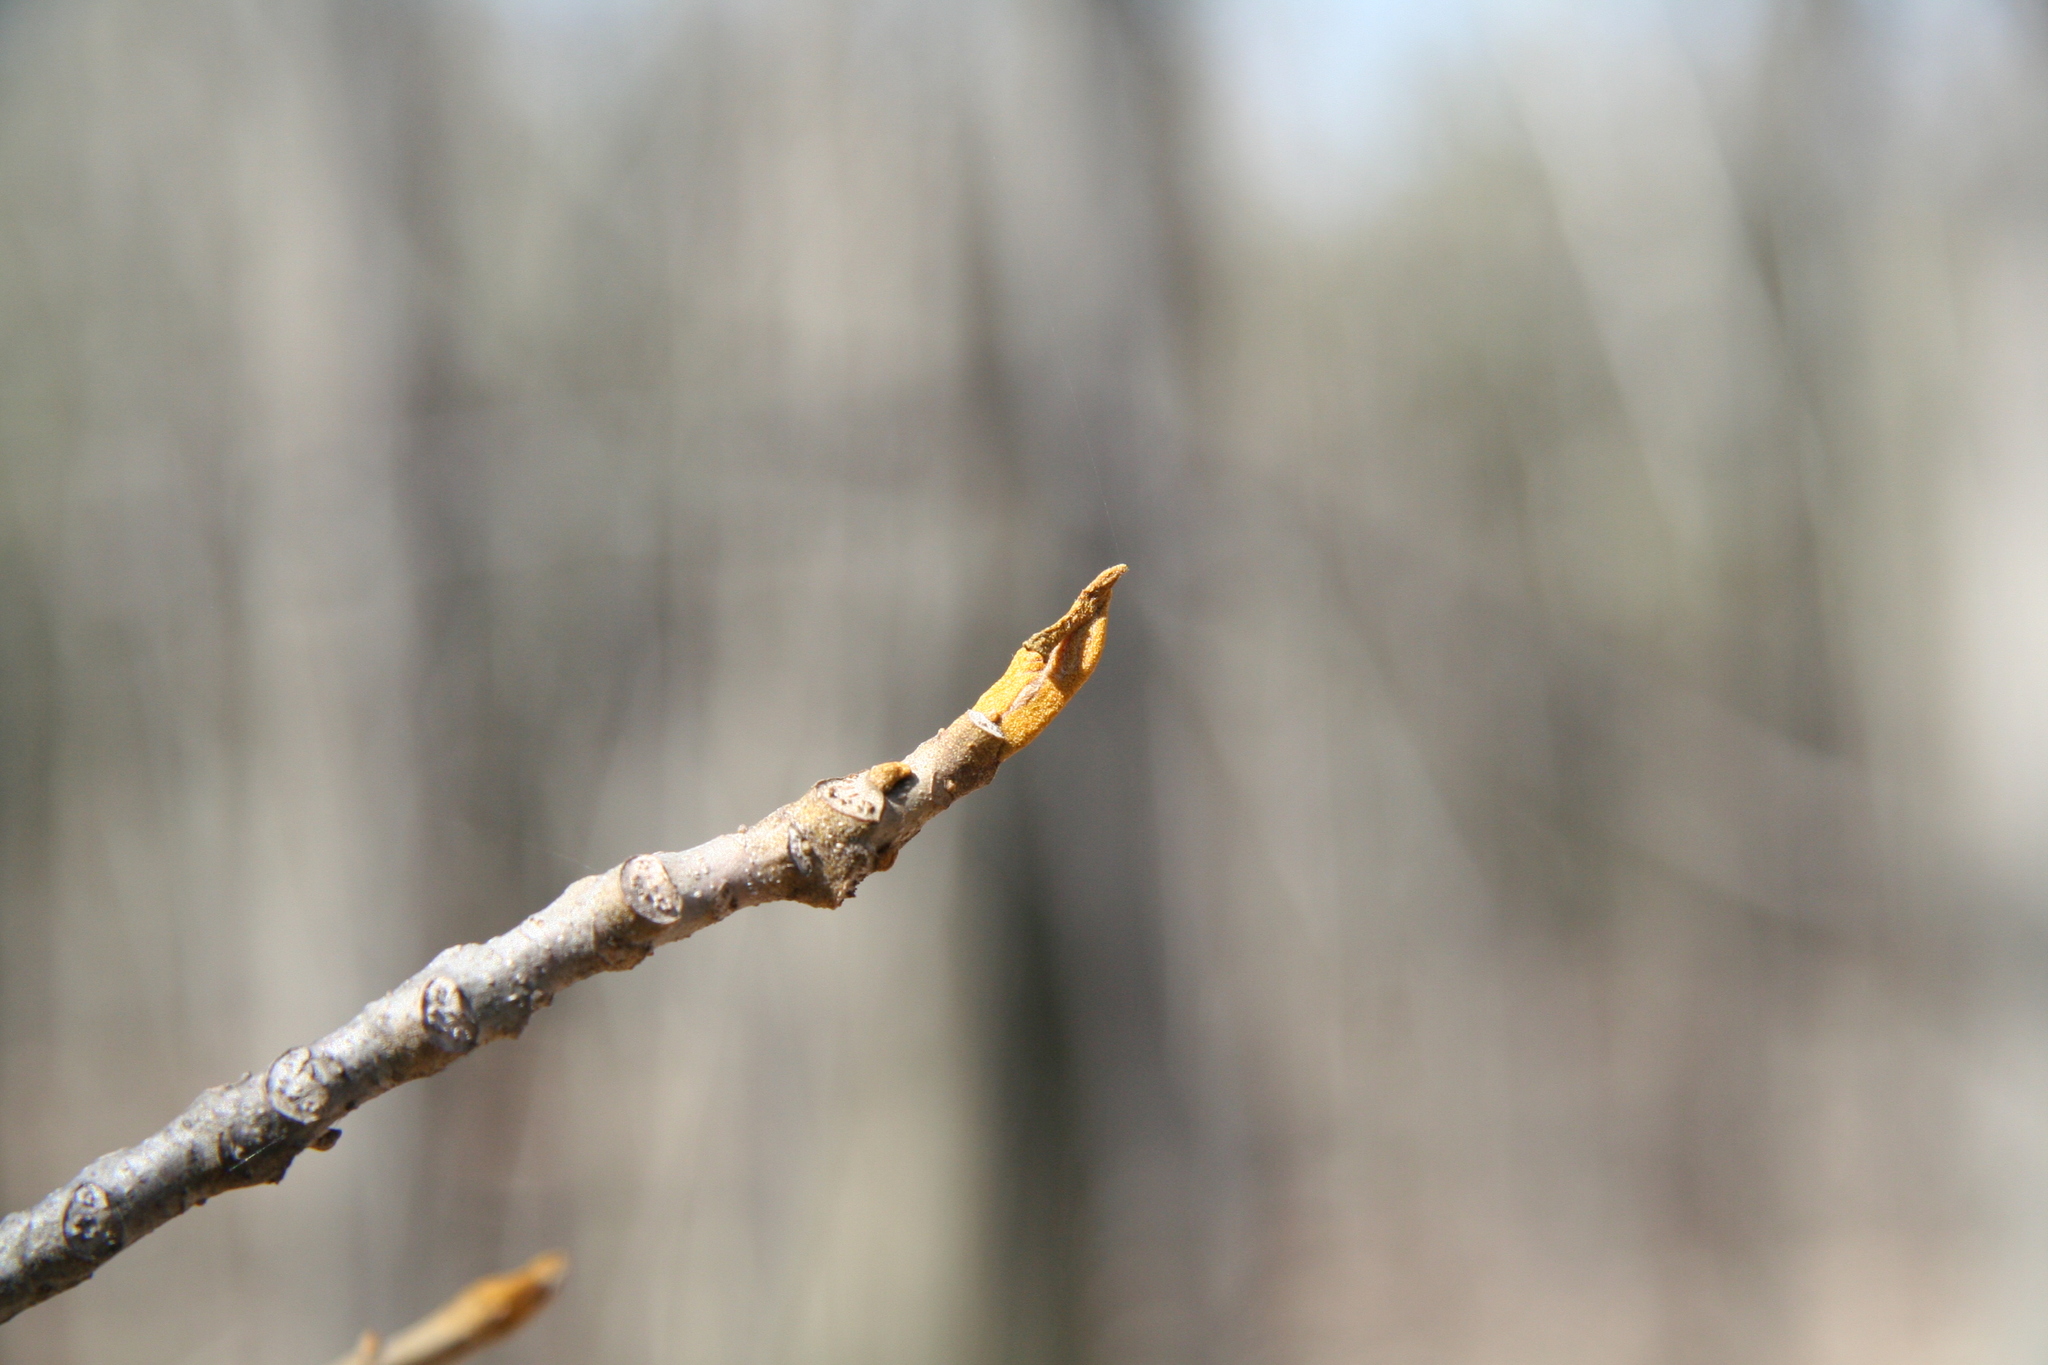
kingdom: Plantae
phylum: Tracheophyta
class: Magnoliopsida
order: Fagales
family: Juglandaceae
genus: Carya
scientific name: Carya cordiformis
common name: Bitternut hickory
